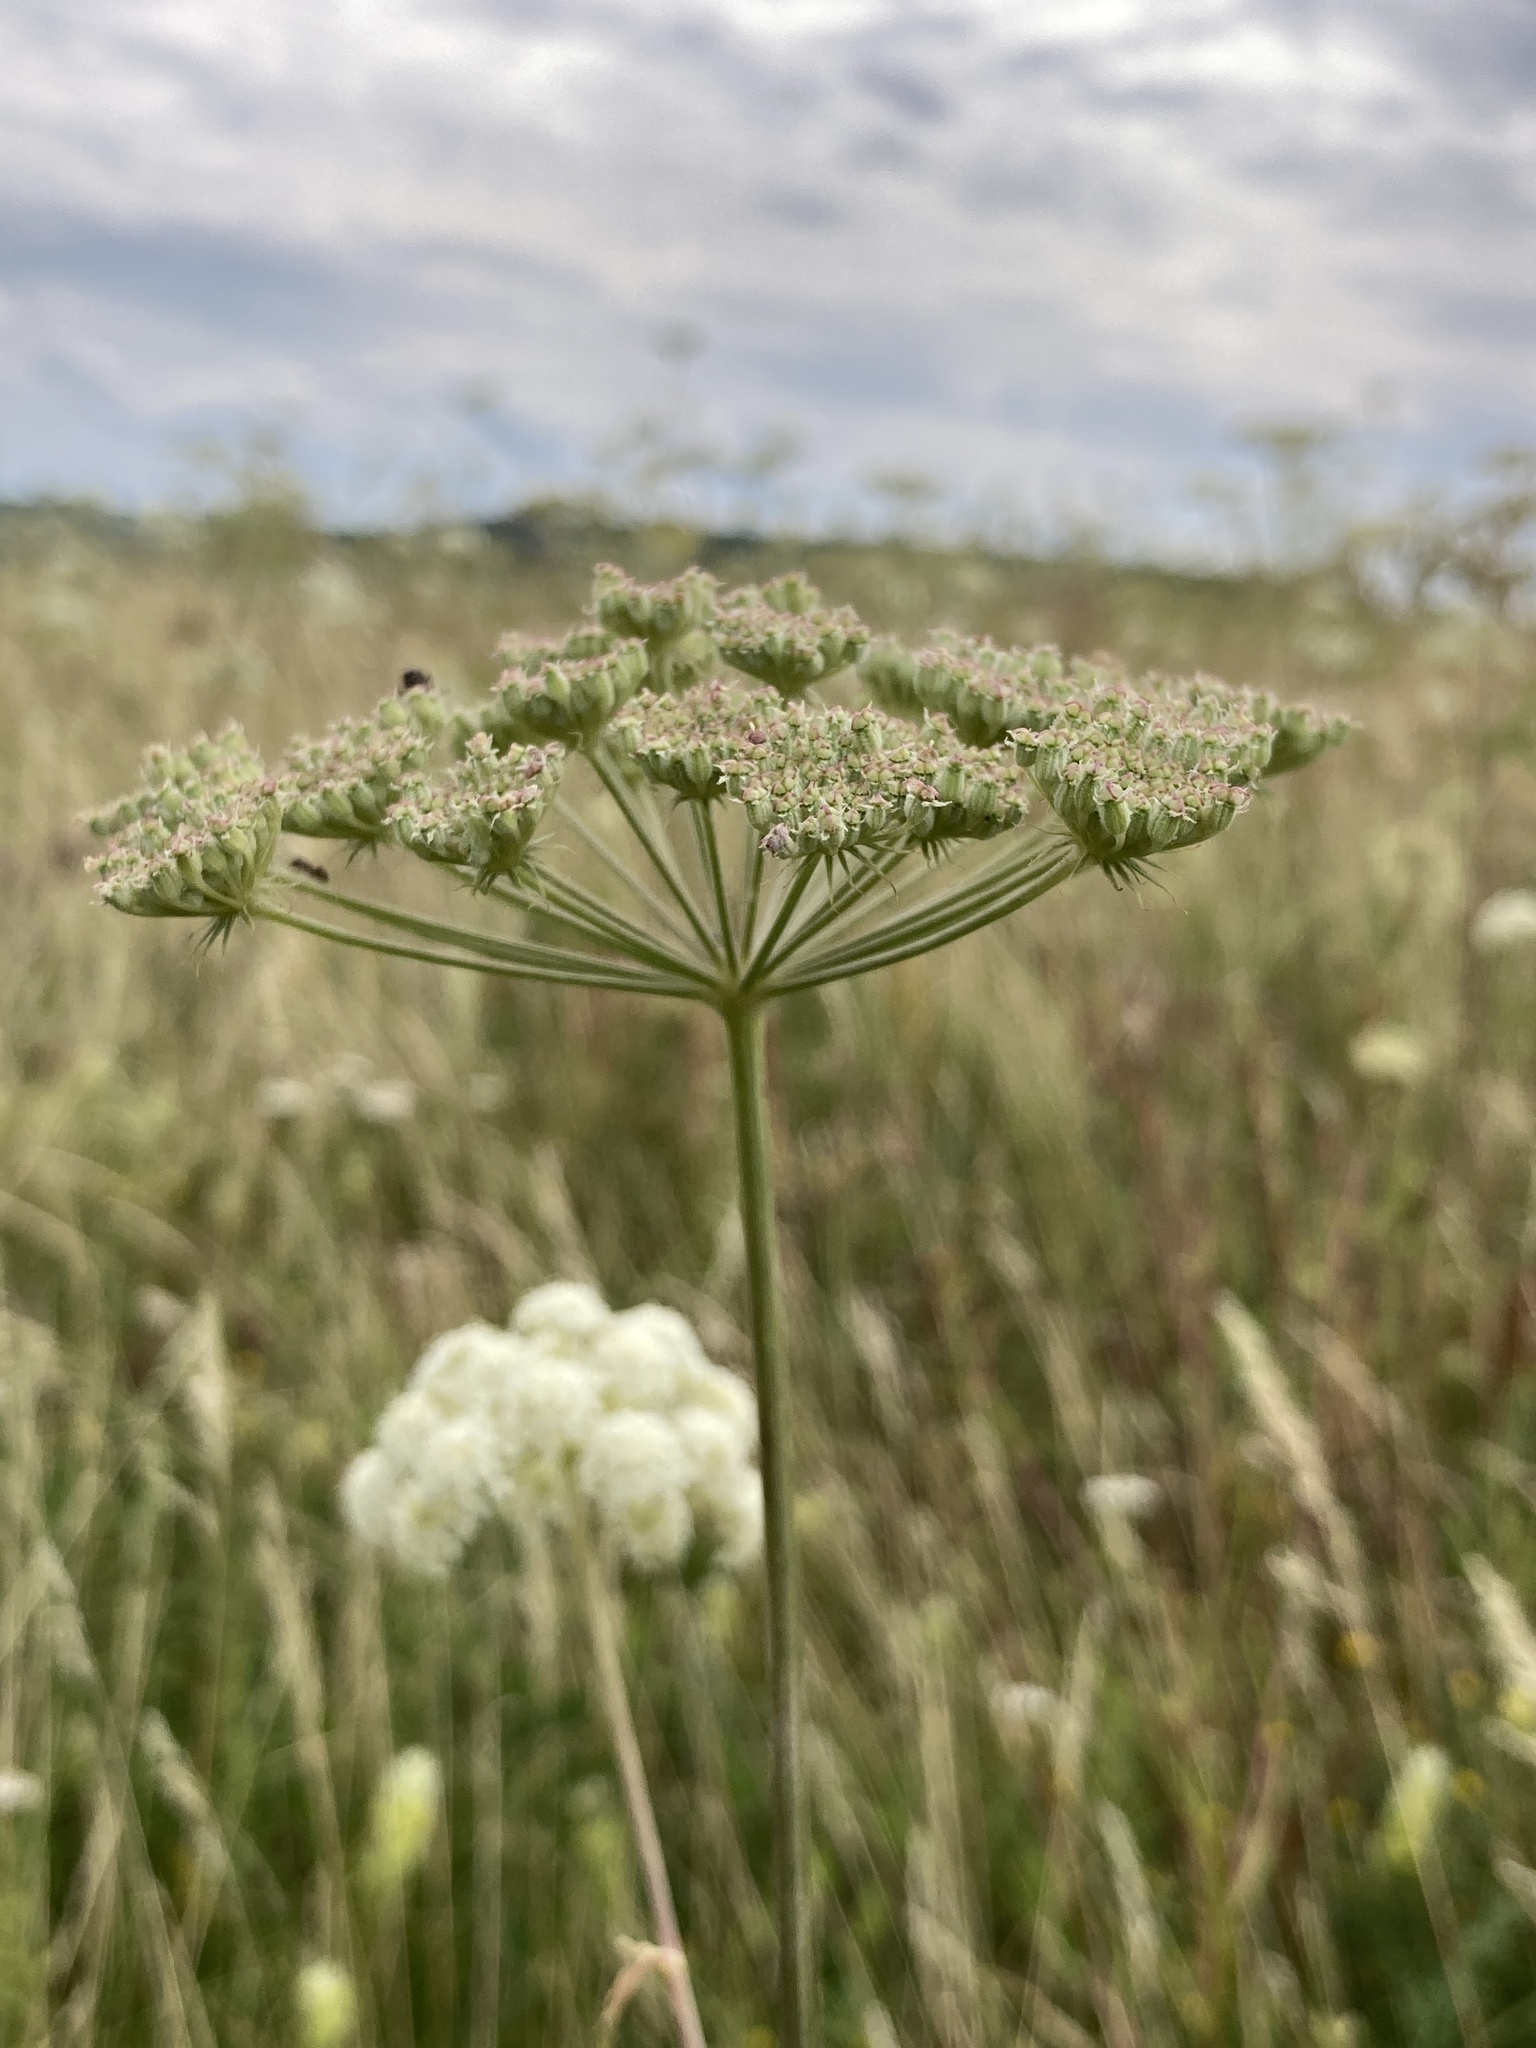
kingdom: Plantae
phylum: Tracheophyta
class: Magnoliopsida
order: Apiales
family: Apiaceae
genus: Seseli
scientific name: Seseli libanotis
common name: Mooncarrot
